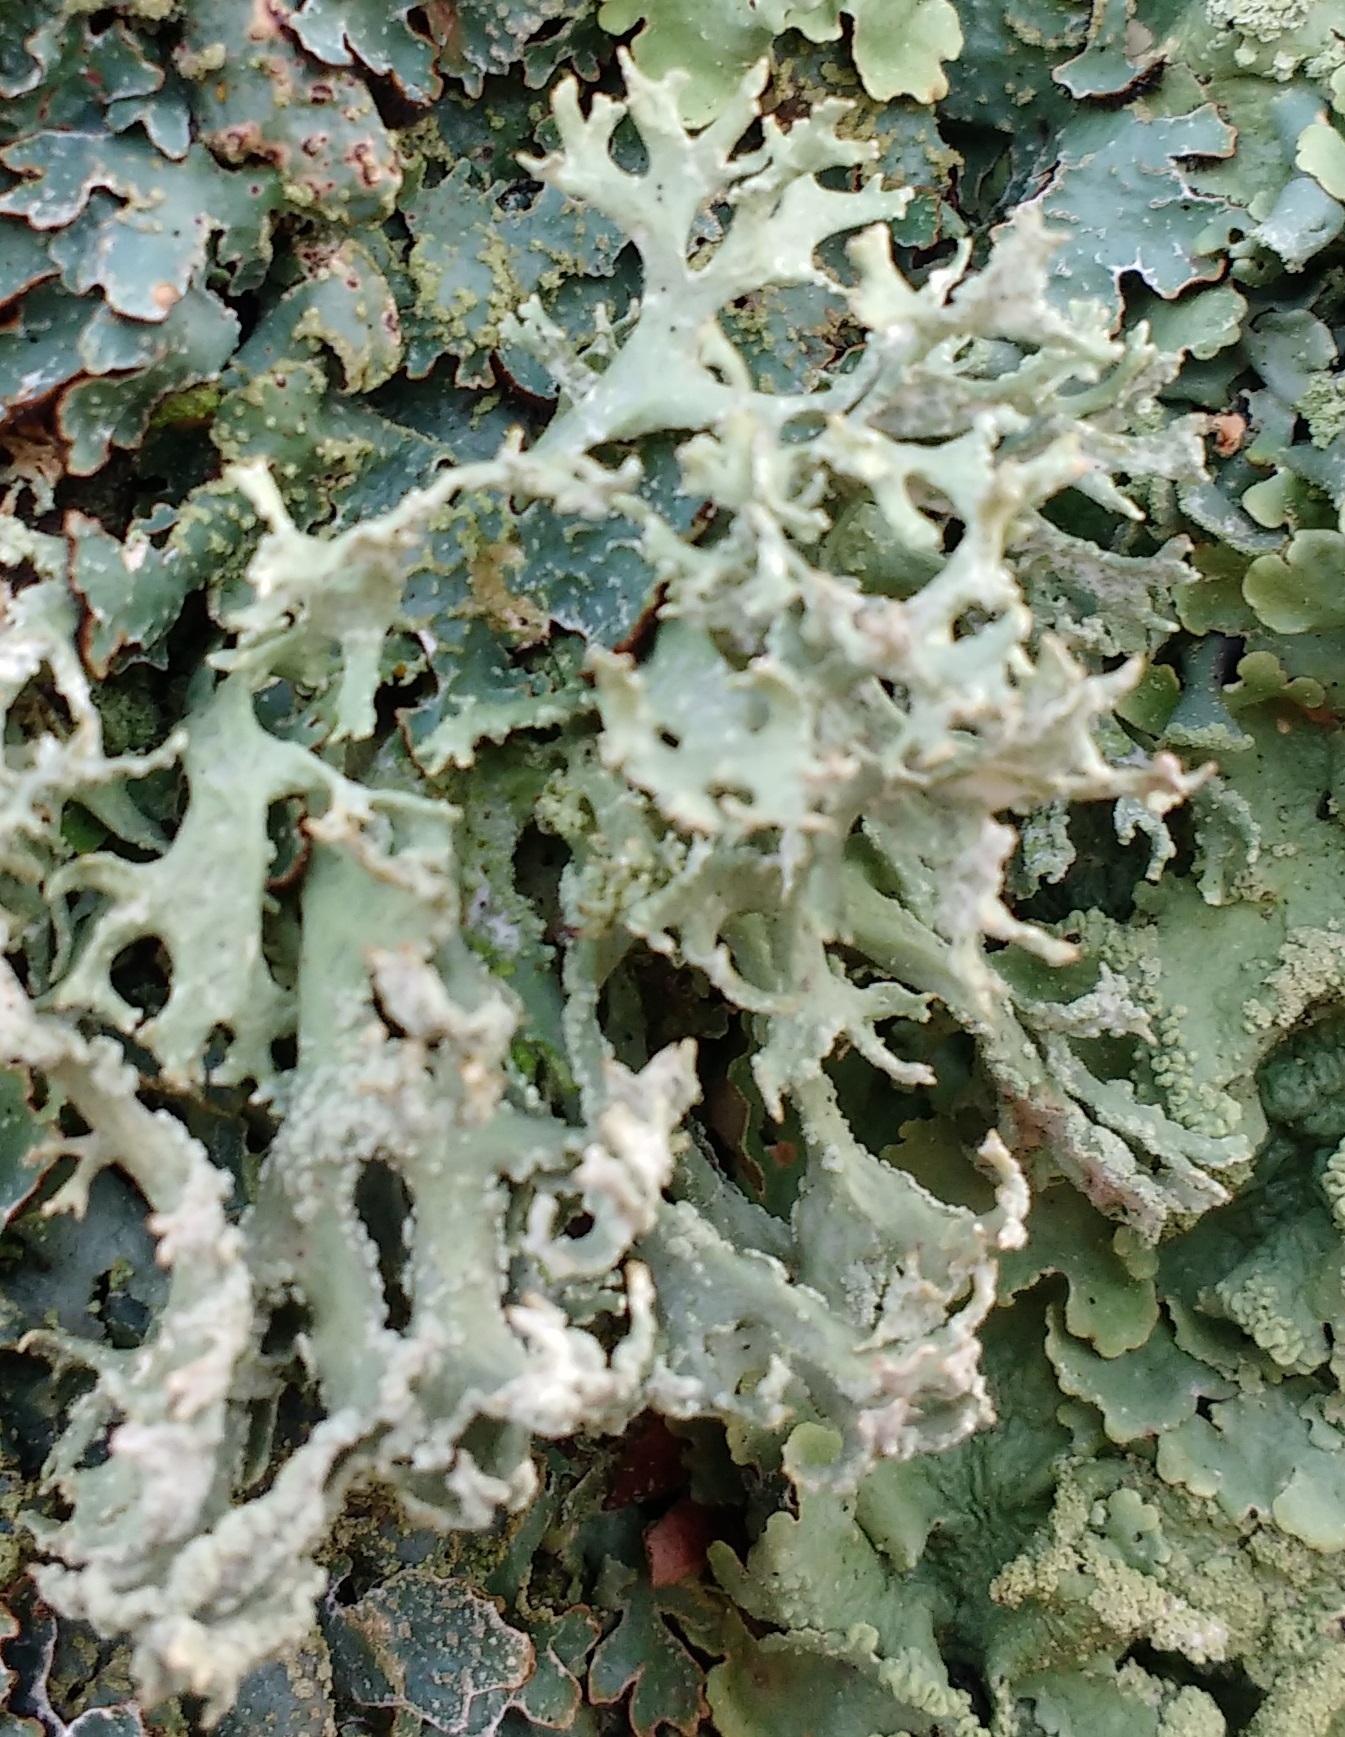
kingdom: Fungi
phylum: Ascomycota
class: Lecanoromycetes
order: Lecanorales
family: Parmeliaceae
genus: Evernia
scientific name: Evernia prunastri
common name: Oak moss
